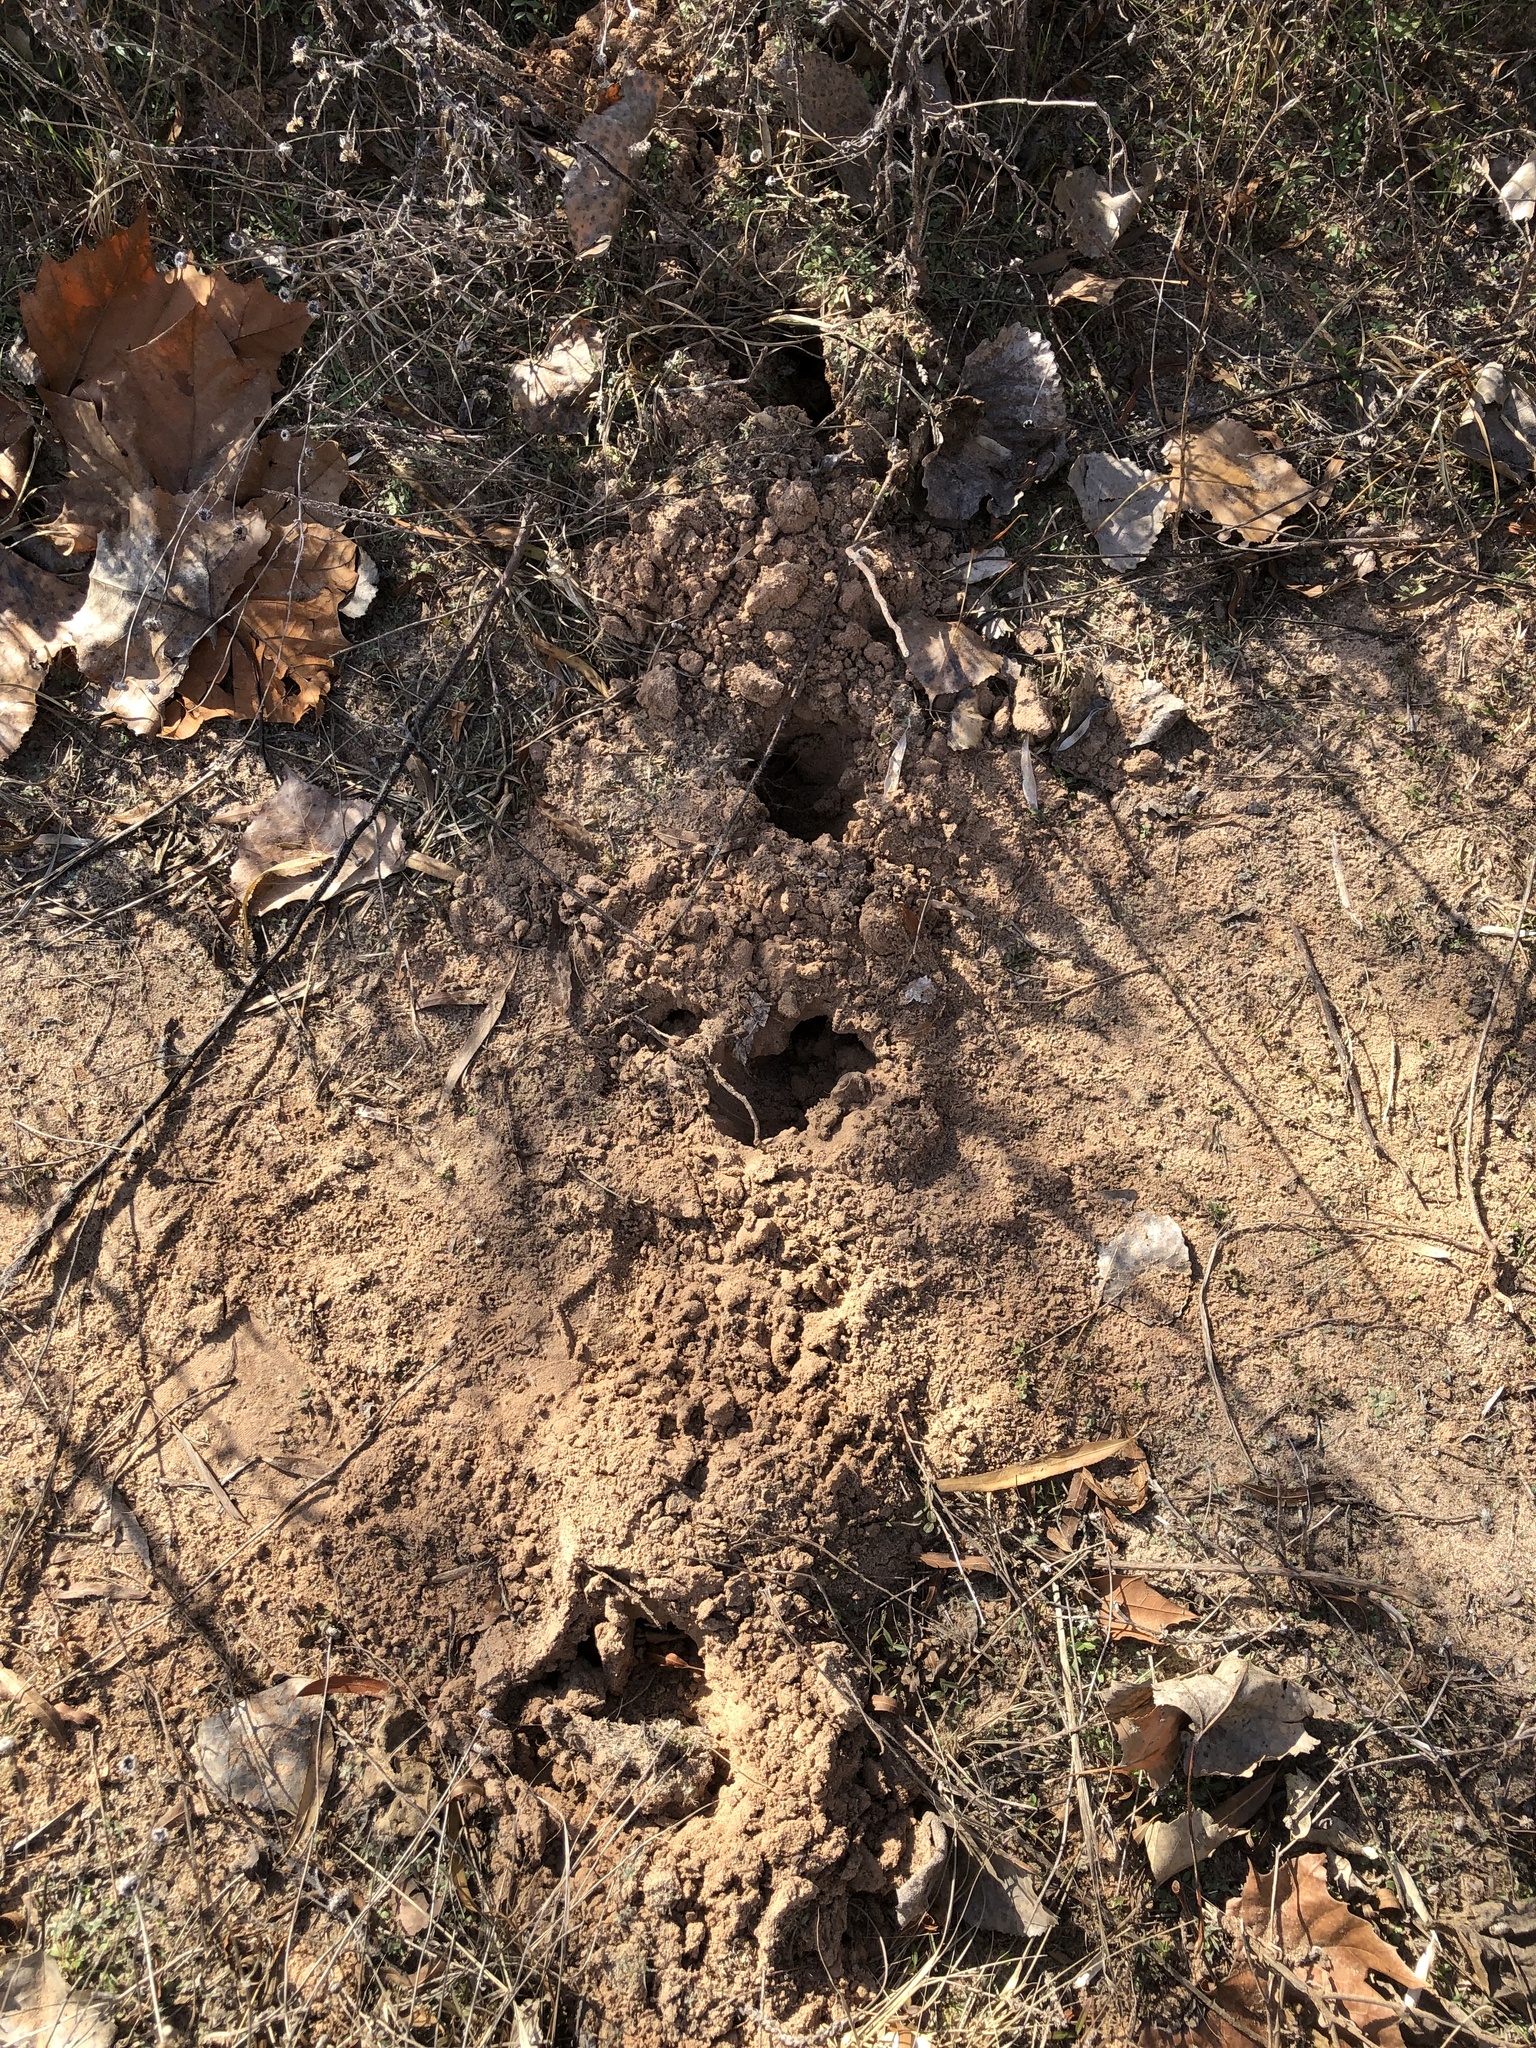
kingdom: Animalia
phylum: Chordata
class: Mammalia
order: Soricomorpha
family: Talpidae
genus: Scalopus
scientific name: Scalopus aquaticus
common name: Eastern mole
